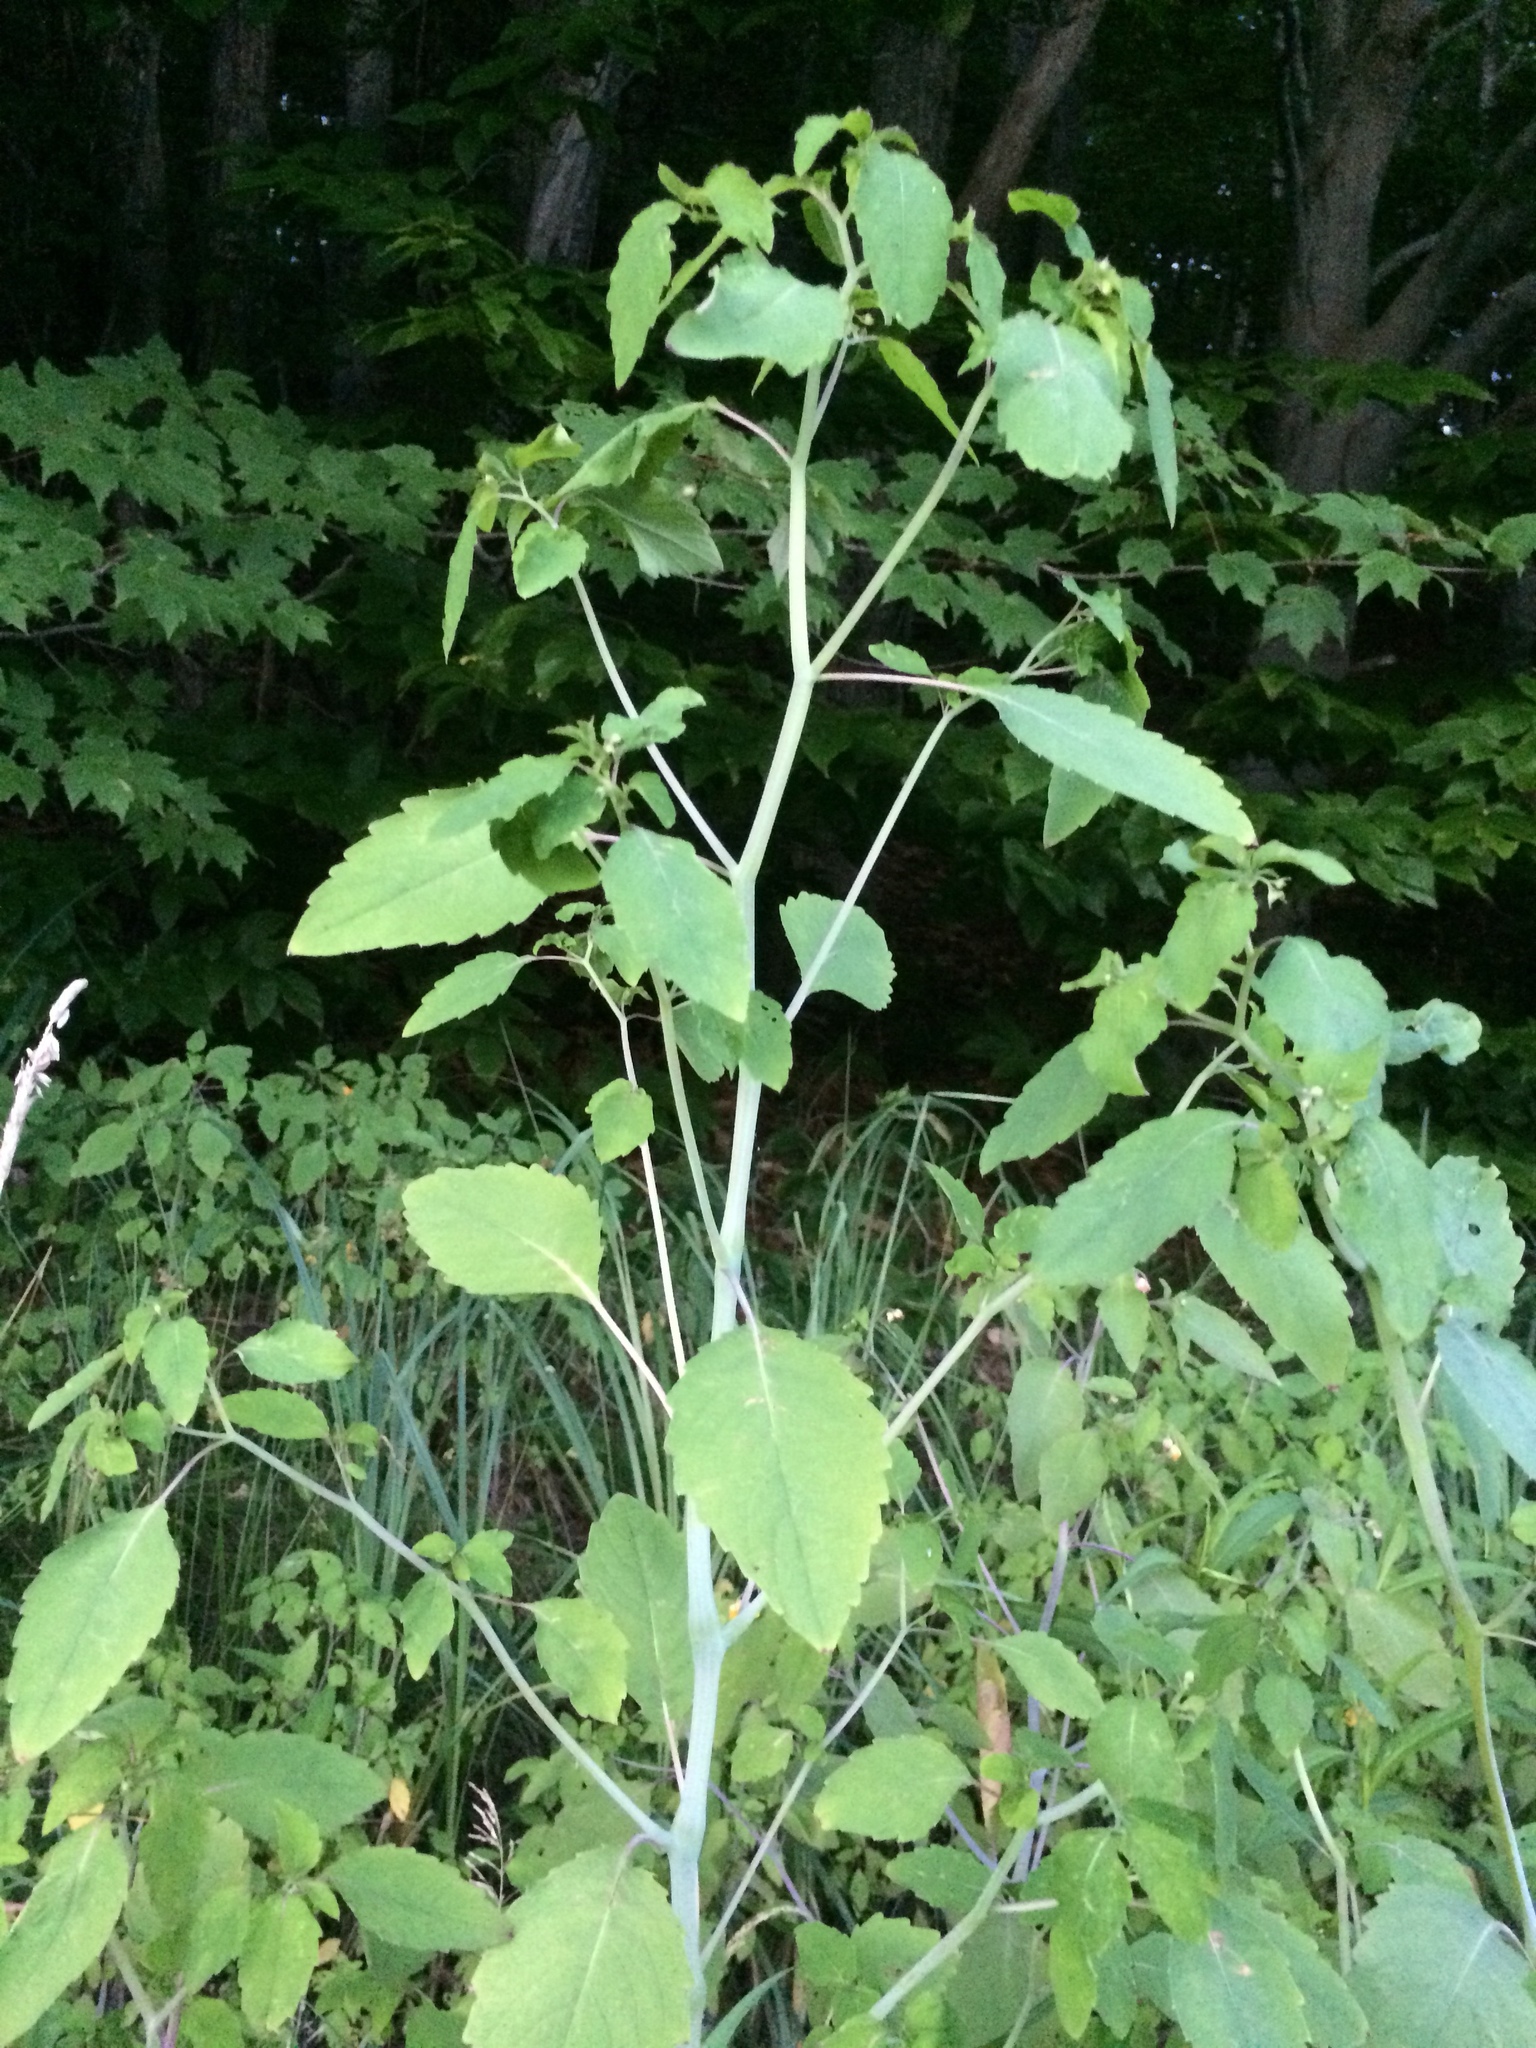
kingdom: Plantae
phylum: Tracheophyta
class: Magnoliopsida
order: Ericales
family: Balsaminaceae
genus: Impatiens
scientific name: Impatiens capensis
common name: Orange balsam
